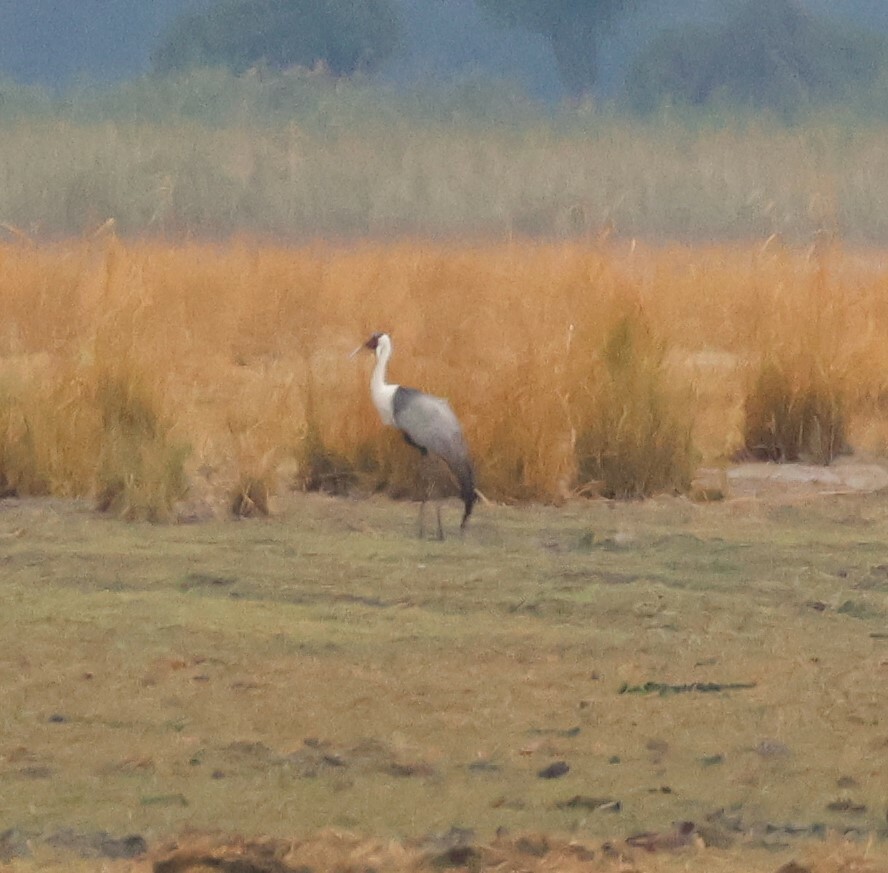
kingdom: Animalia
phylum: Chordata
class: Aves
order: Gruiformes
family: Gruidae
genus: Bugeranus
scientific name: Bugeranus carunculatus
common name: Wattled crane
